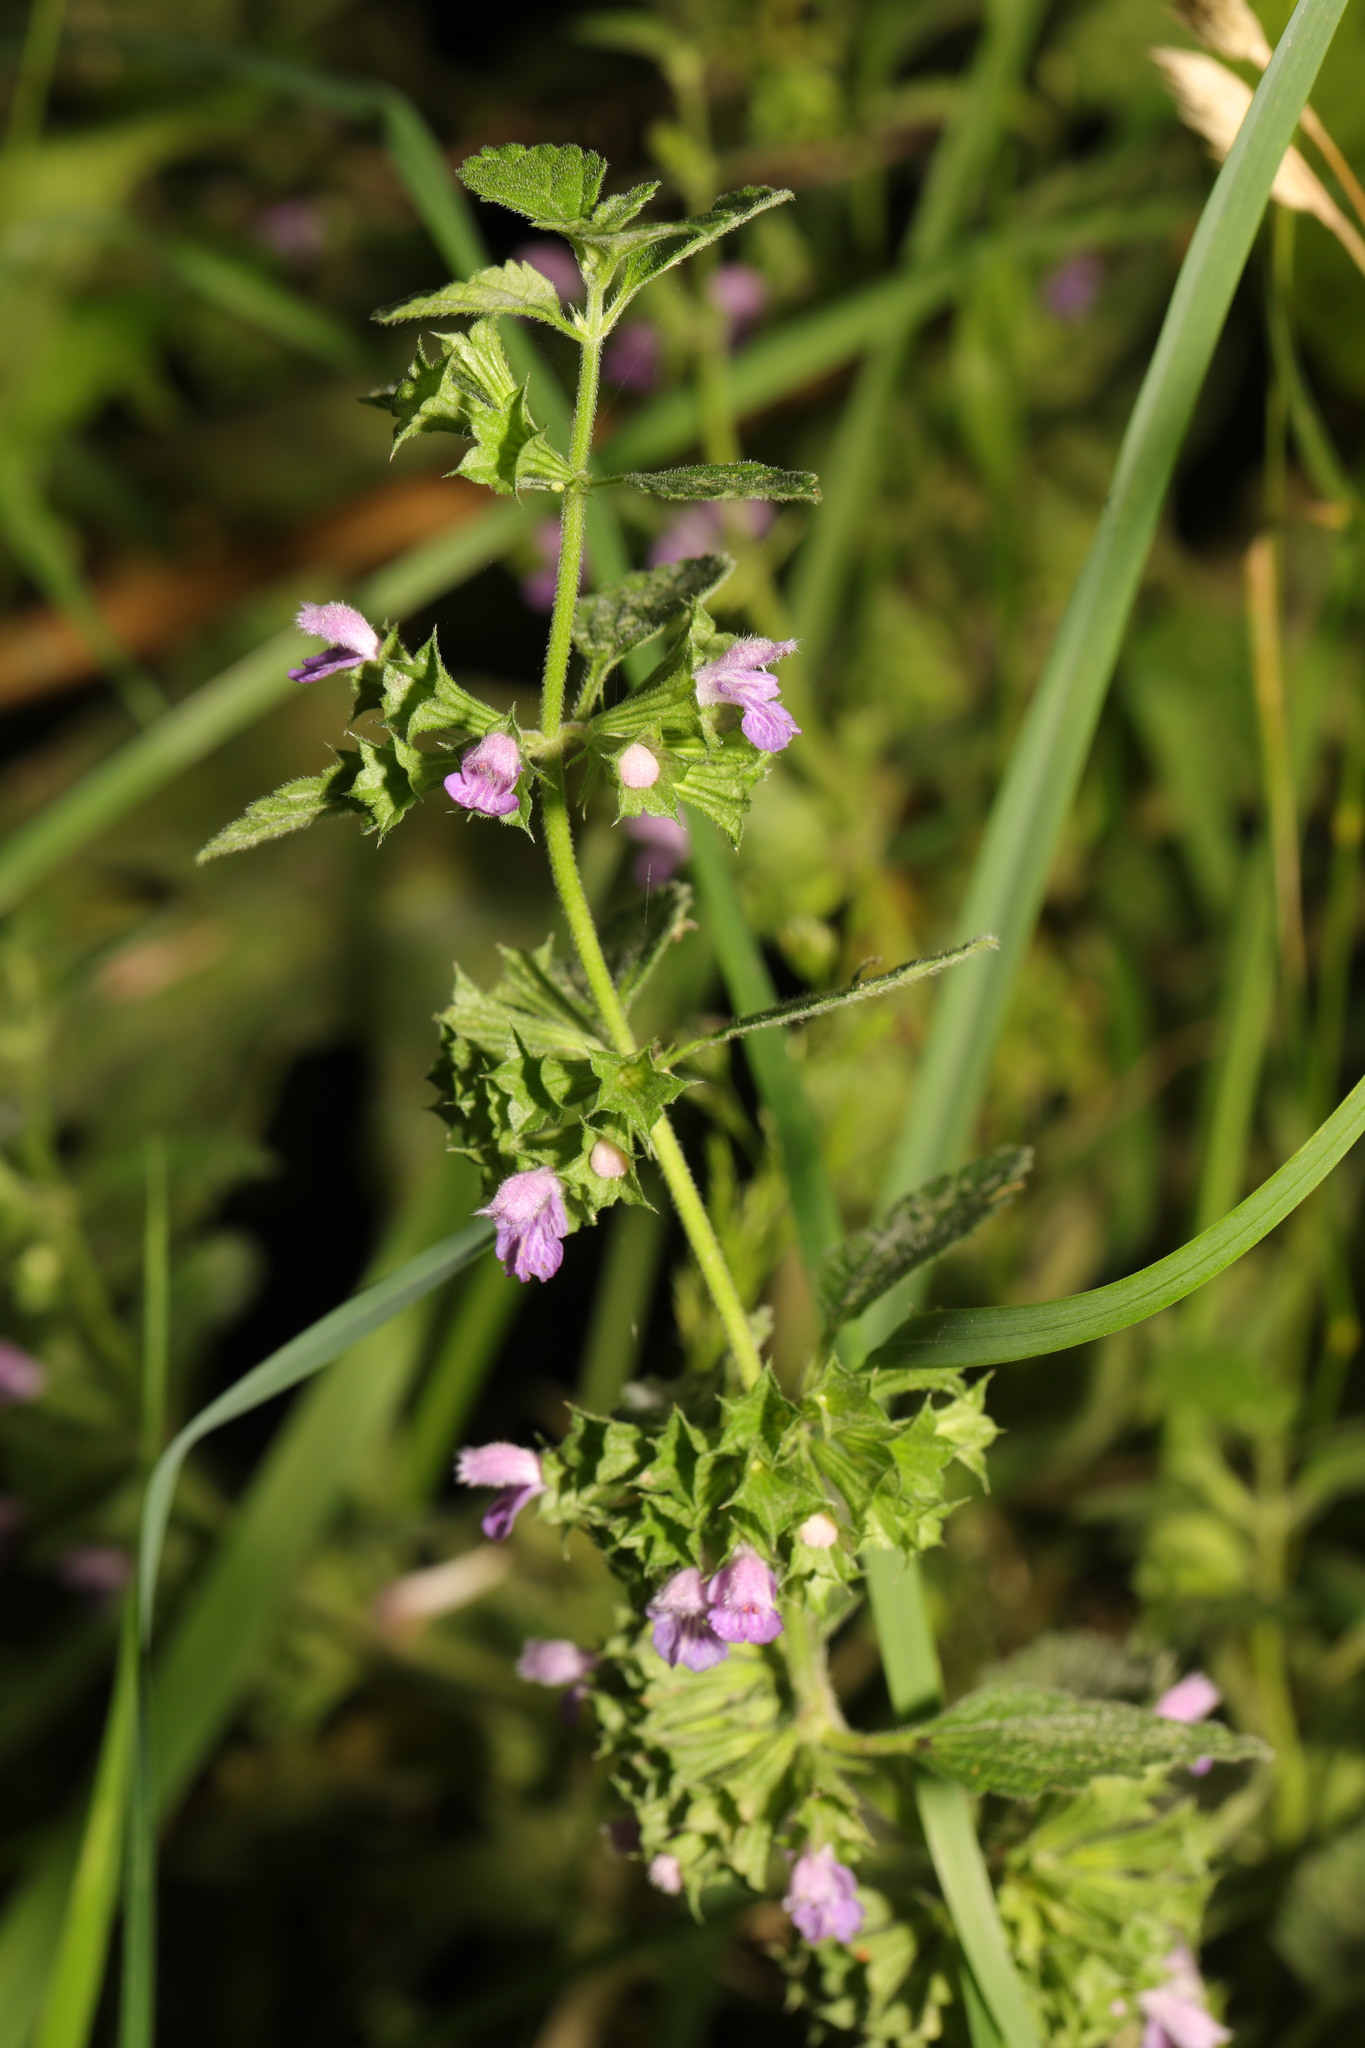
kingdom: Plantae
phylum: Tracheophyta
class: Magnoliopsida
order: Lamiales
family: Lamiaceae
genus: Ballota
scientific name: Ballota nigra
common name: Black horehound
